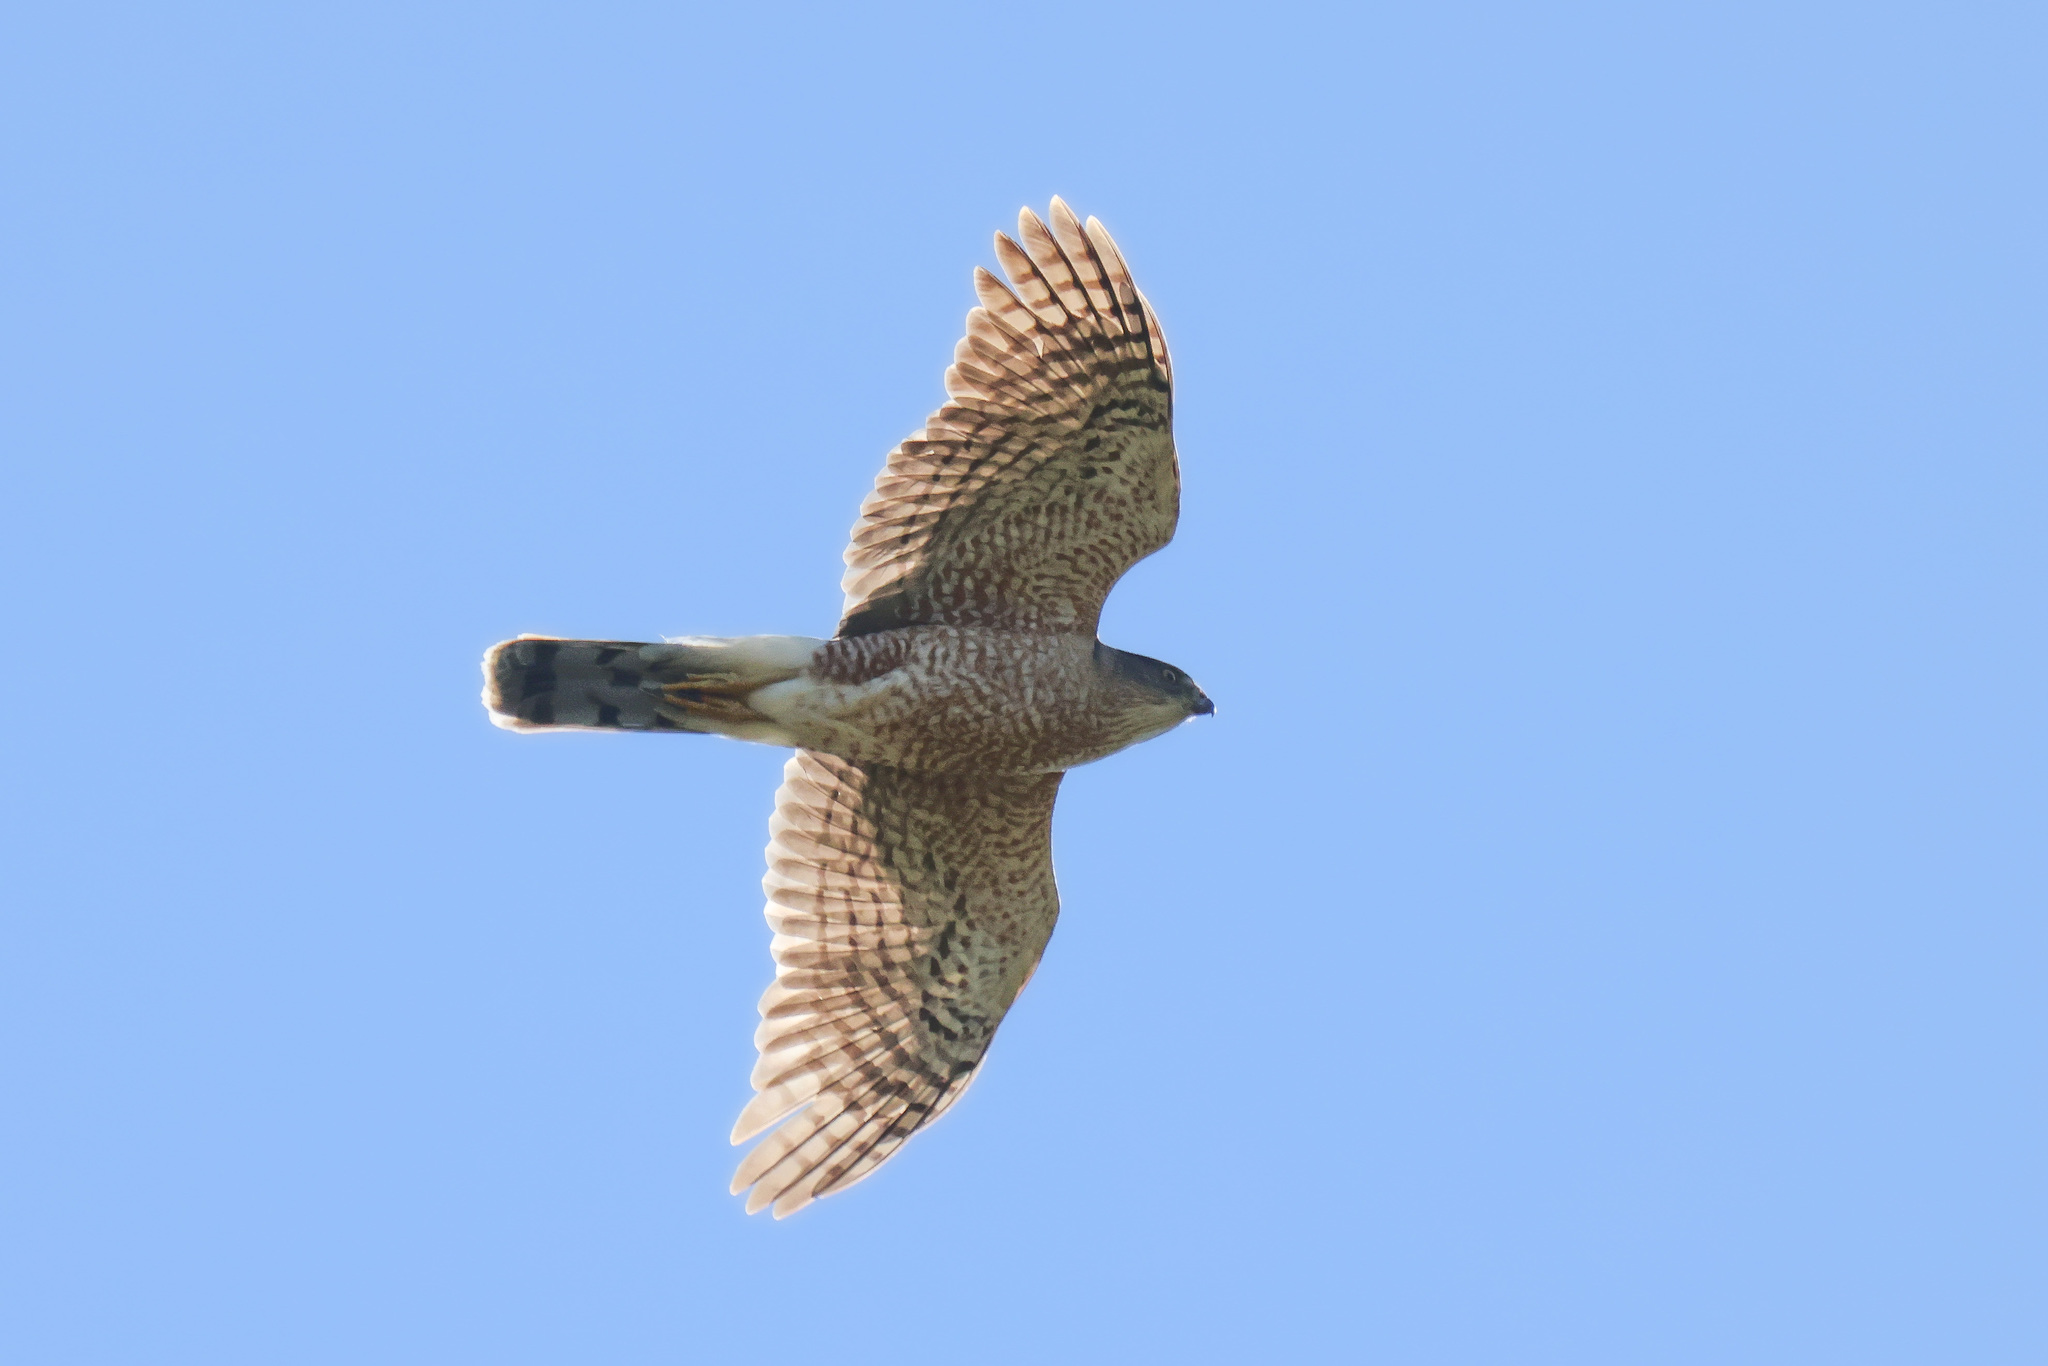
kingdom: Animalia
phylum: Chordata
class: Aves
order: Accipitriformes
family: Accipitridae
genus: Accipiter
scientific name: Accipiter cooperii
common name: Cooper's hawk
